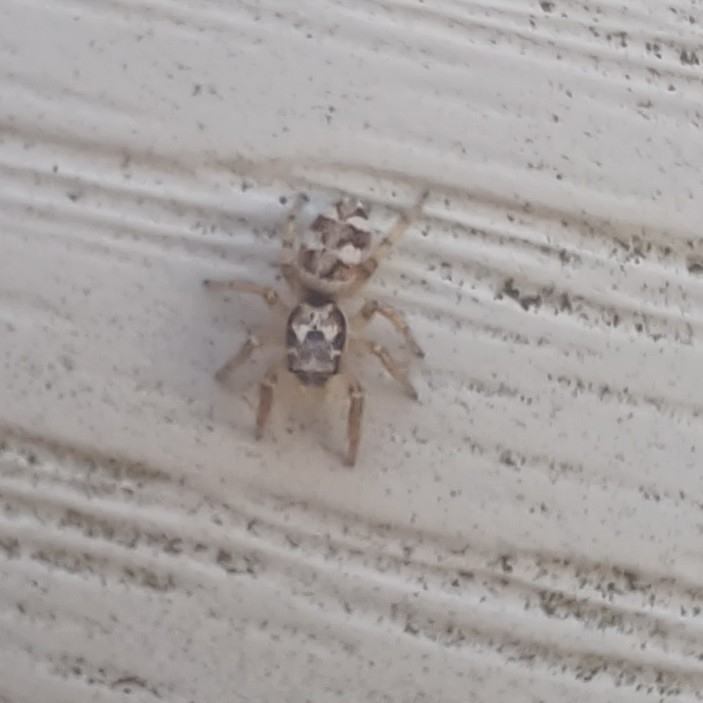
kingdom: Animalia
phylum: Arthropoda
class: Arachnida
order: Araneae
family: Salticidae
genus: Salticus
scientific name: Salticus scenicus
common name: Zebra jumper
